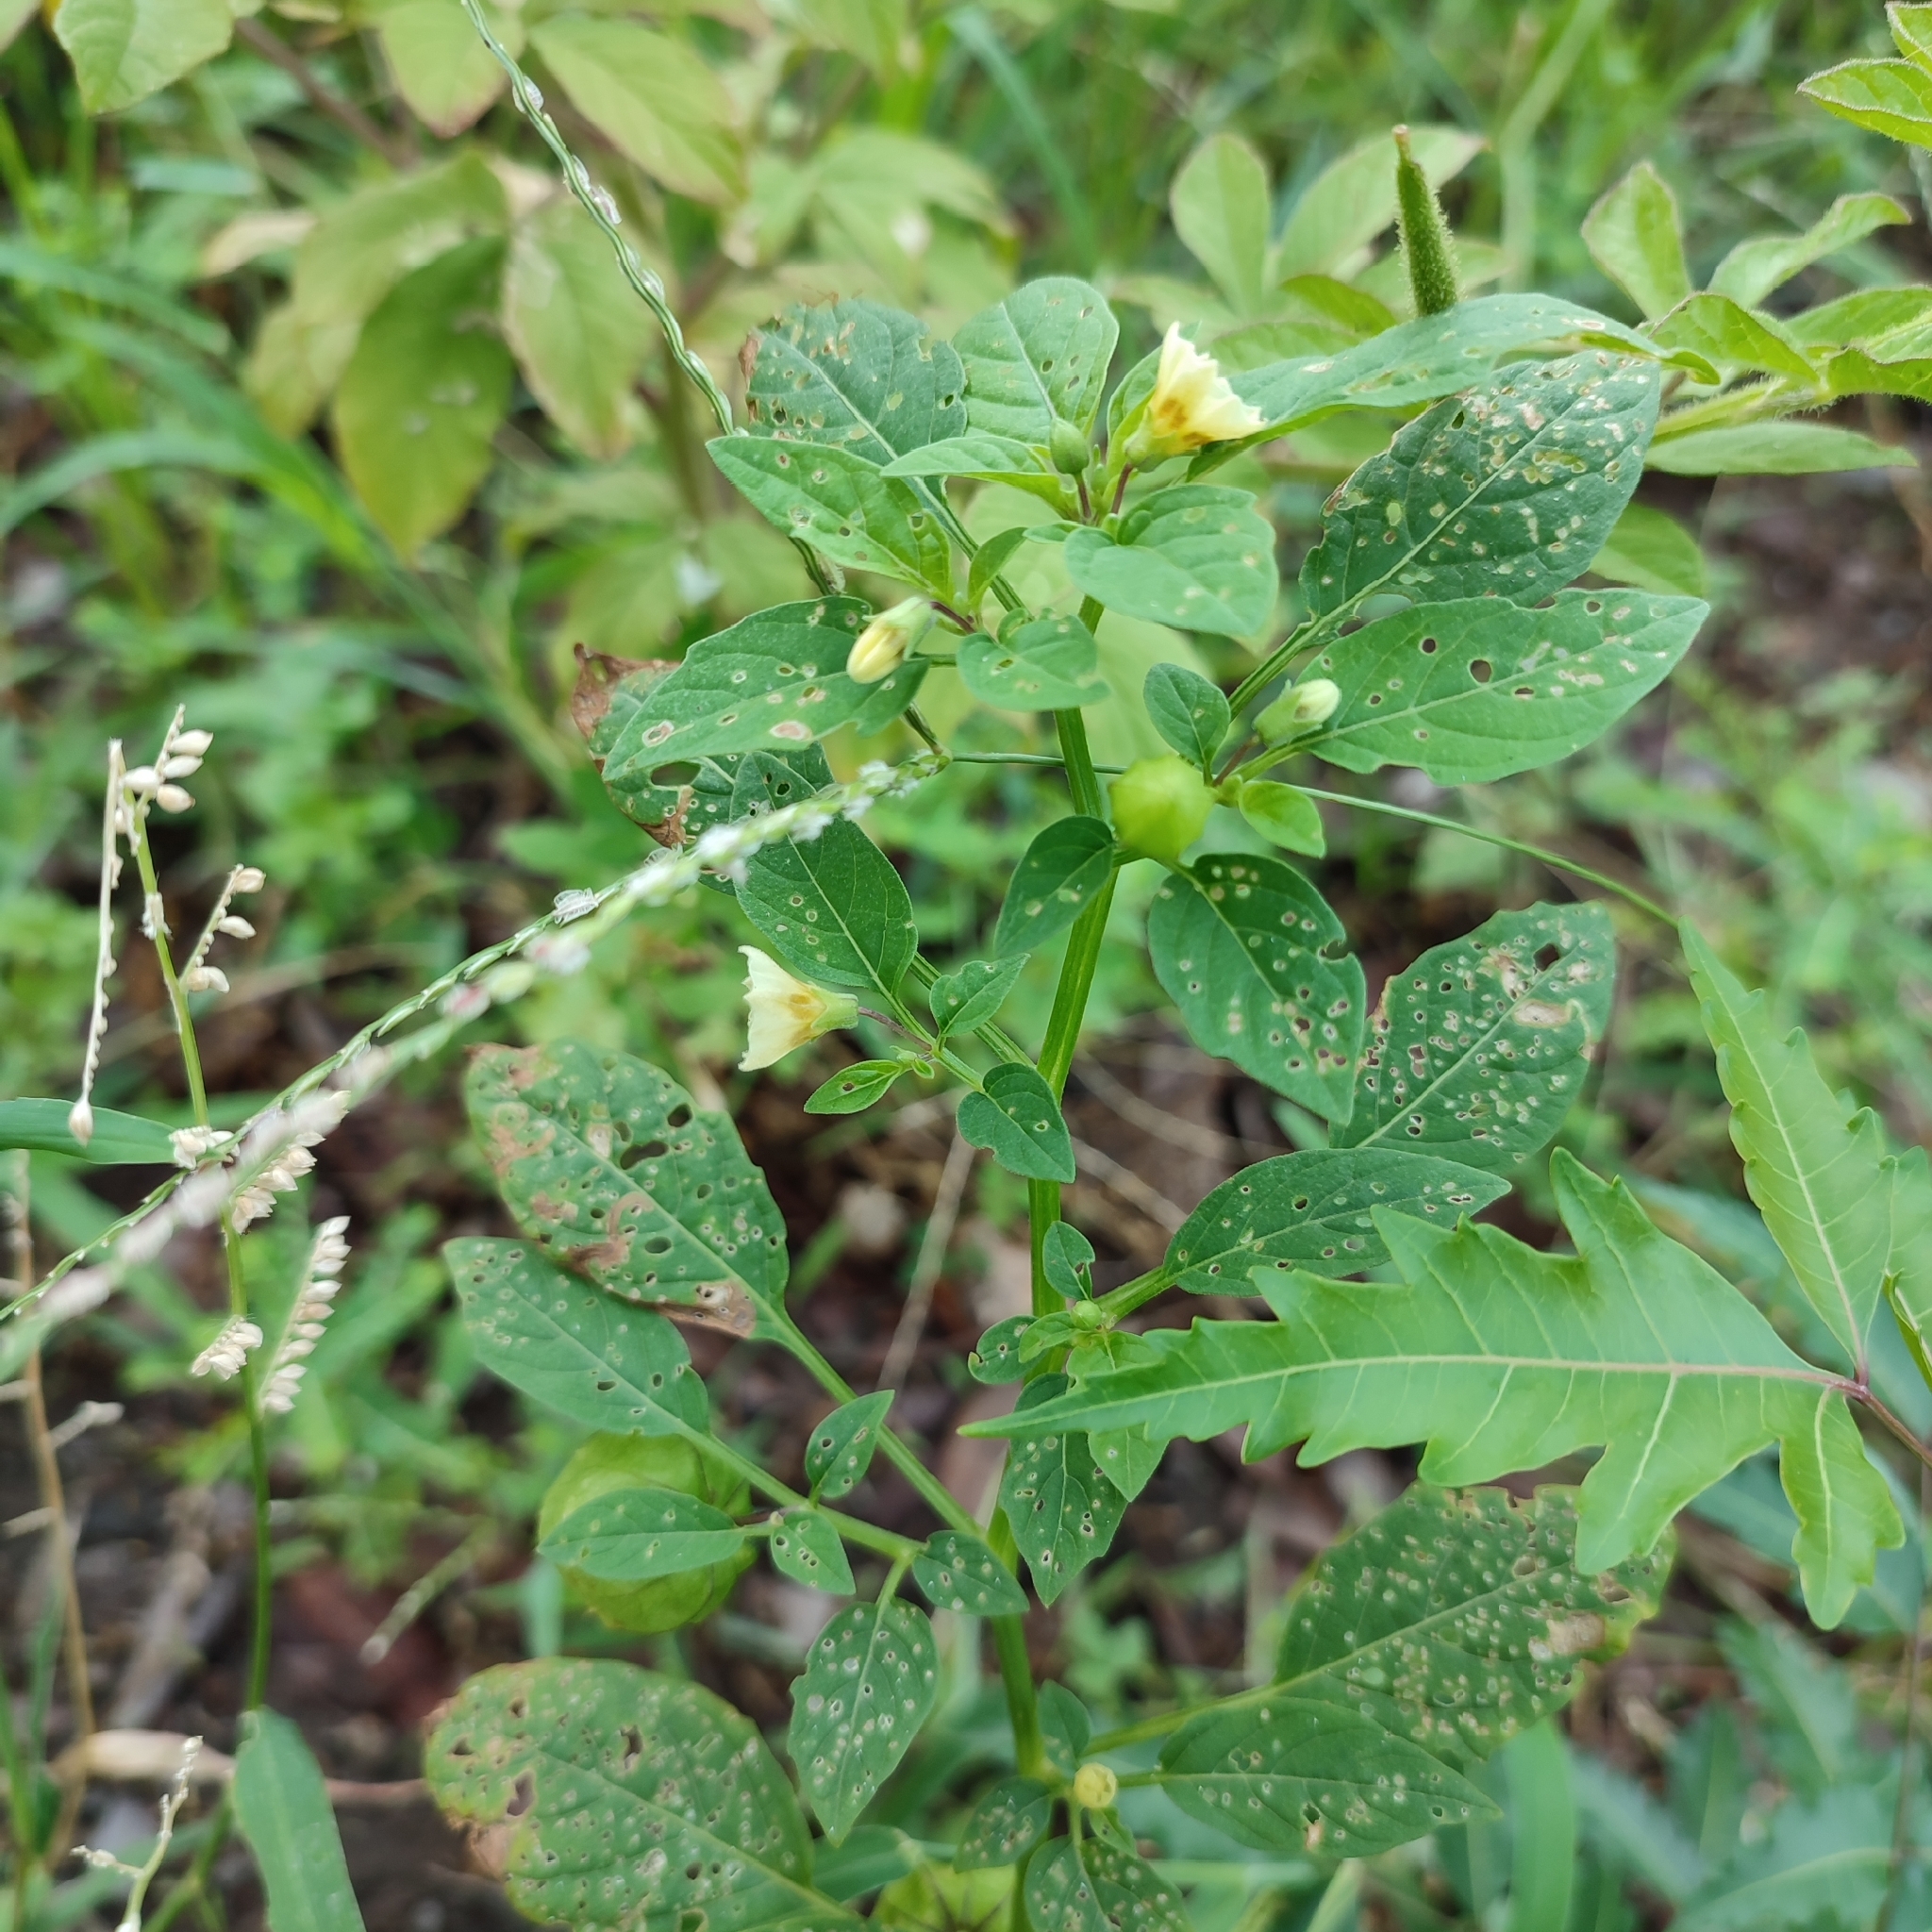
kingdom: Plantae
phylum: Tracheophyta
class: Magnoliopsida
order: Solanales
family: Solanaceae
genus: Physalis
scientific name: Physalis angulata
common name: Angular winter-cherry
